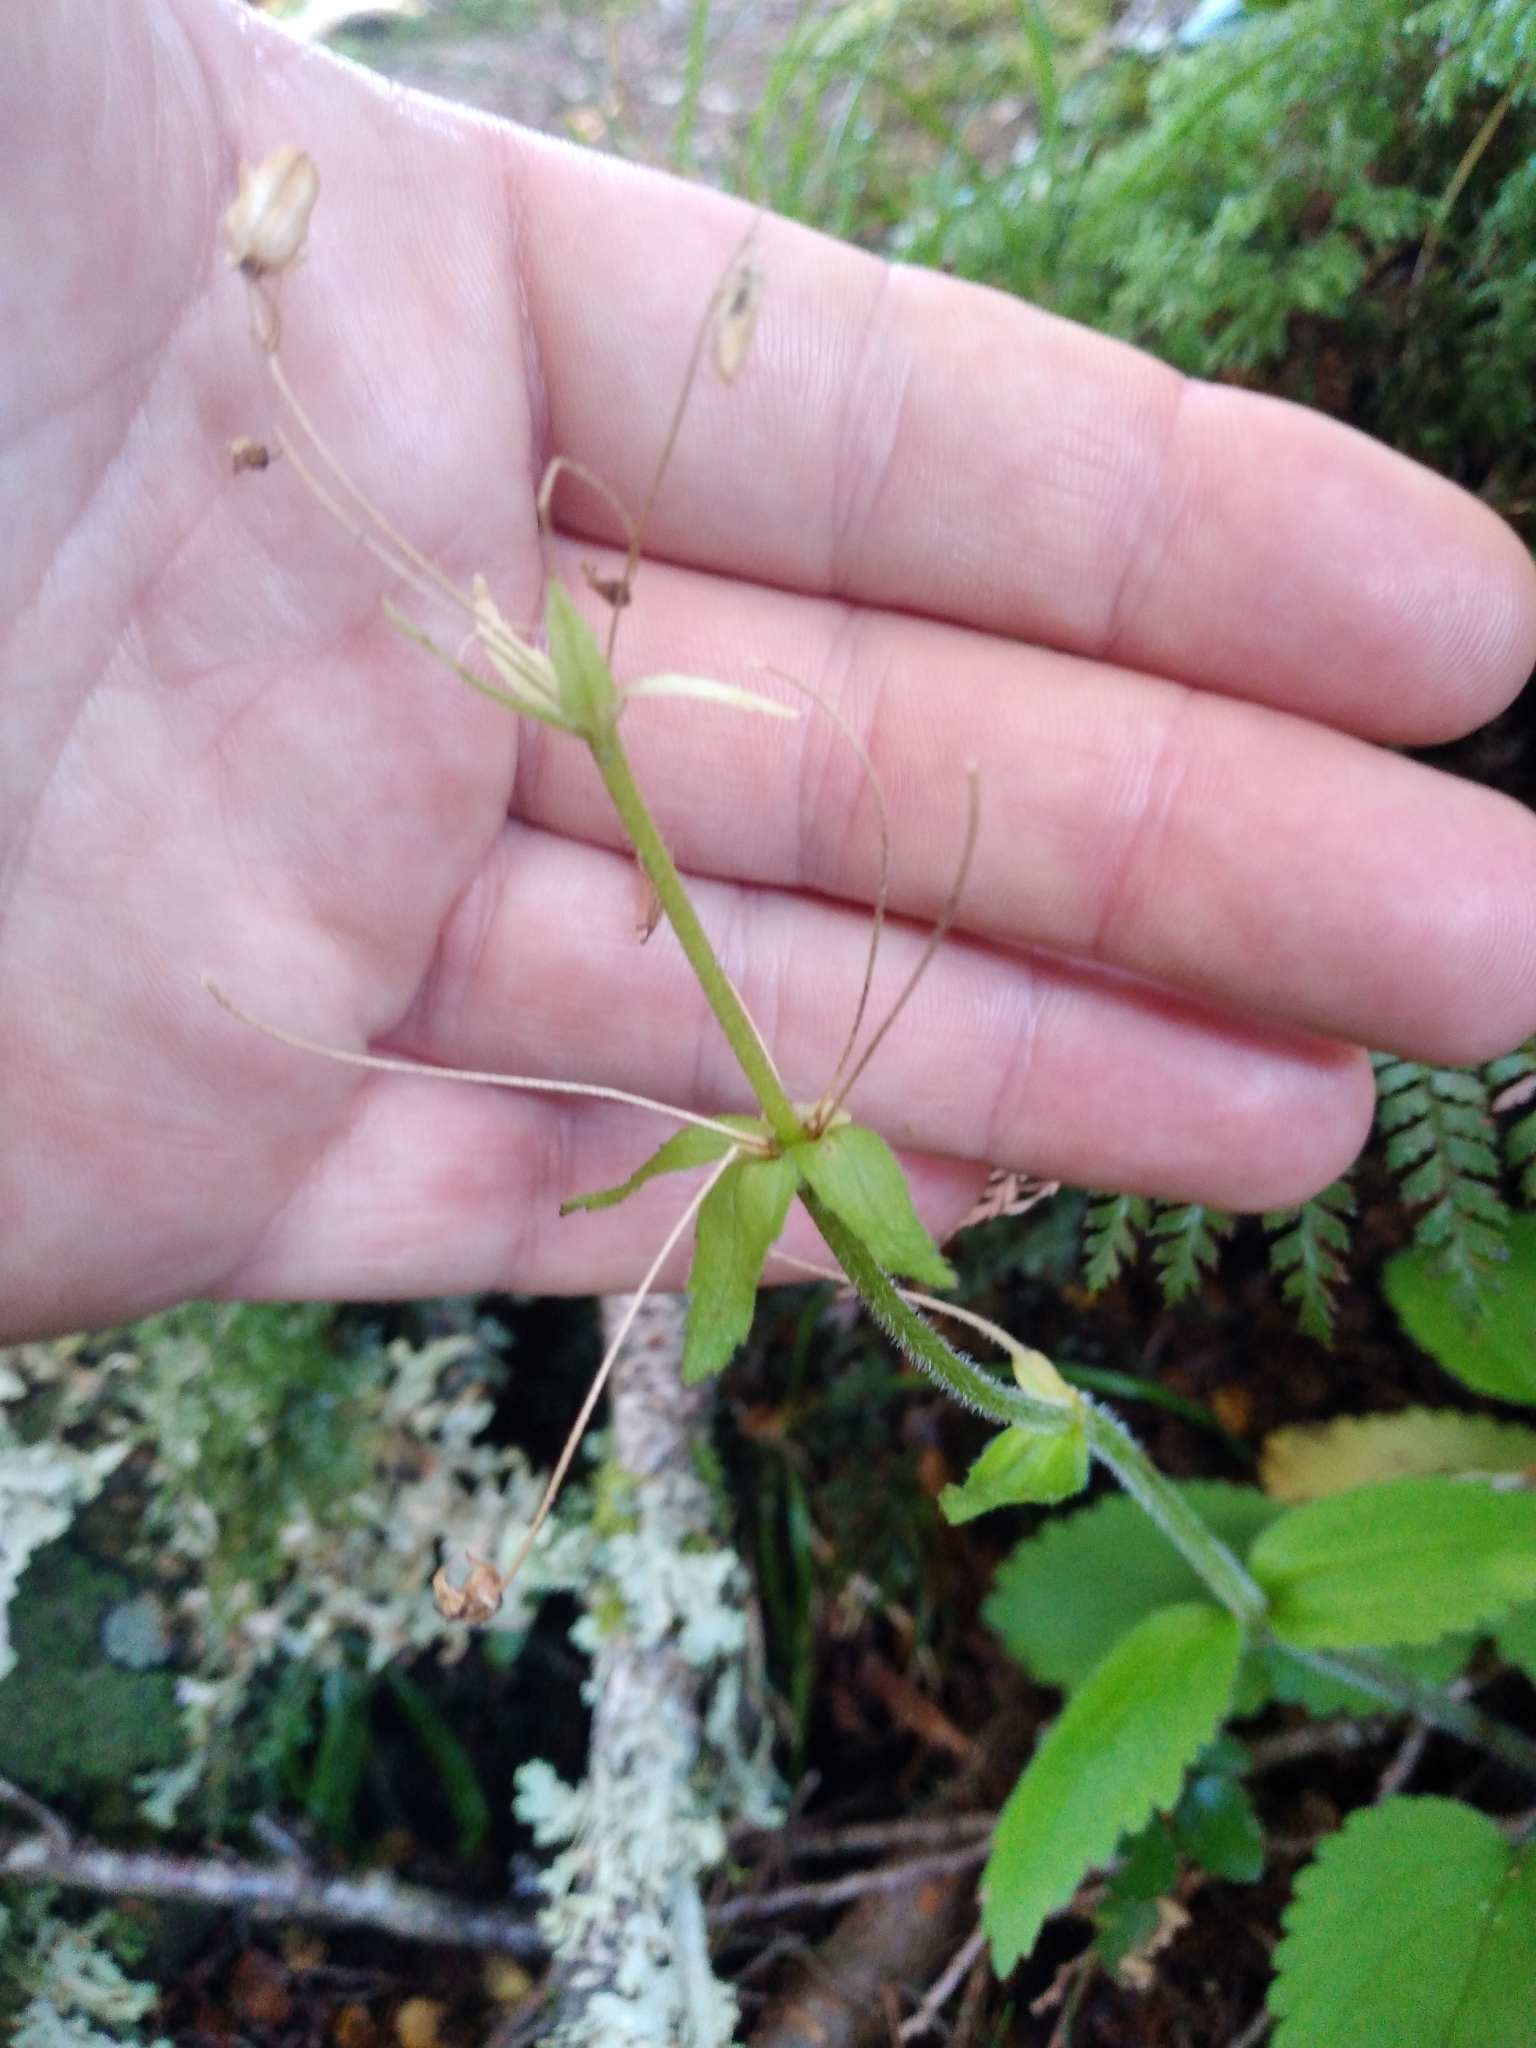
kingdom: Plantae
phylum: Tracheophyta
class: Magnoliopsida
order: Lamiales
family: Plantaginaceae
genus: Ourisia
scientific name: Ourisia macrophylla
